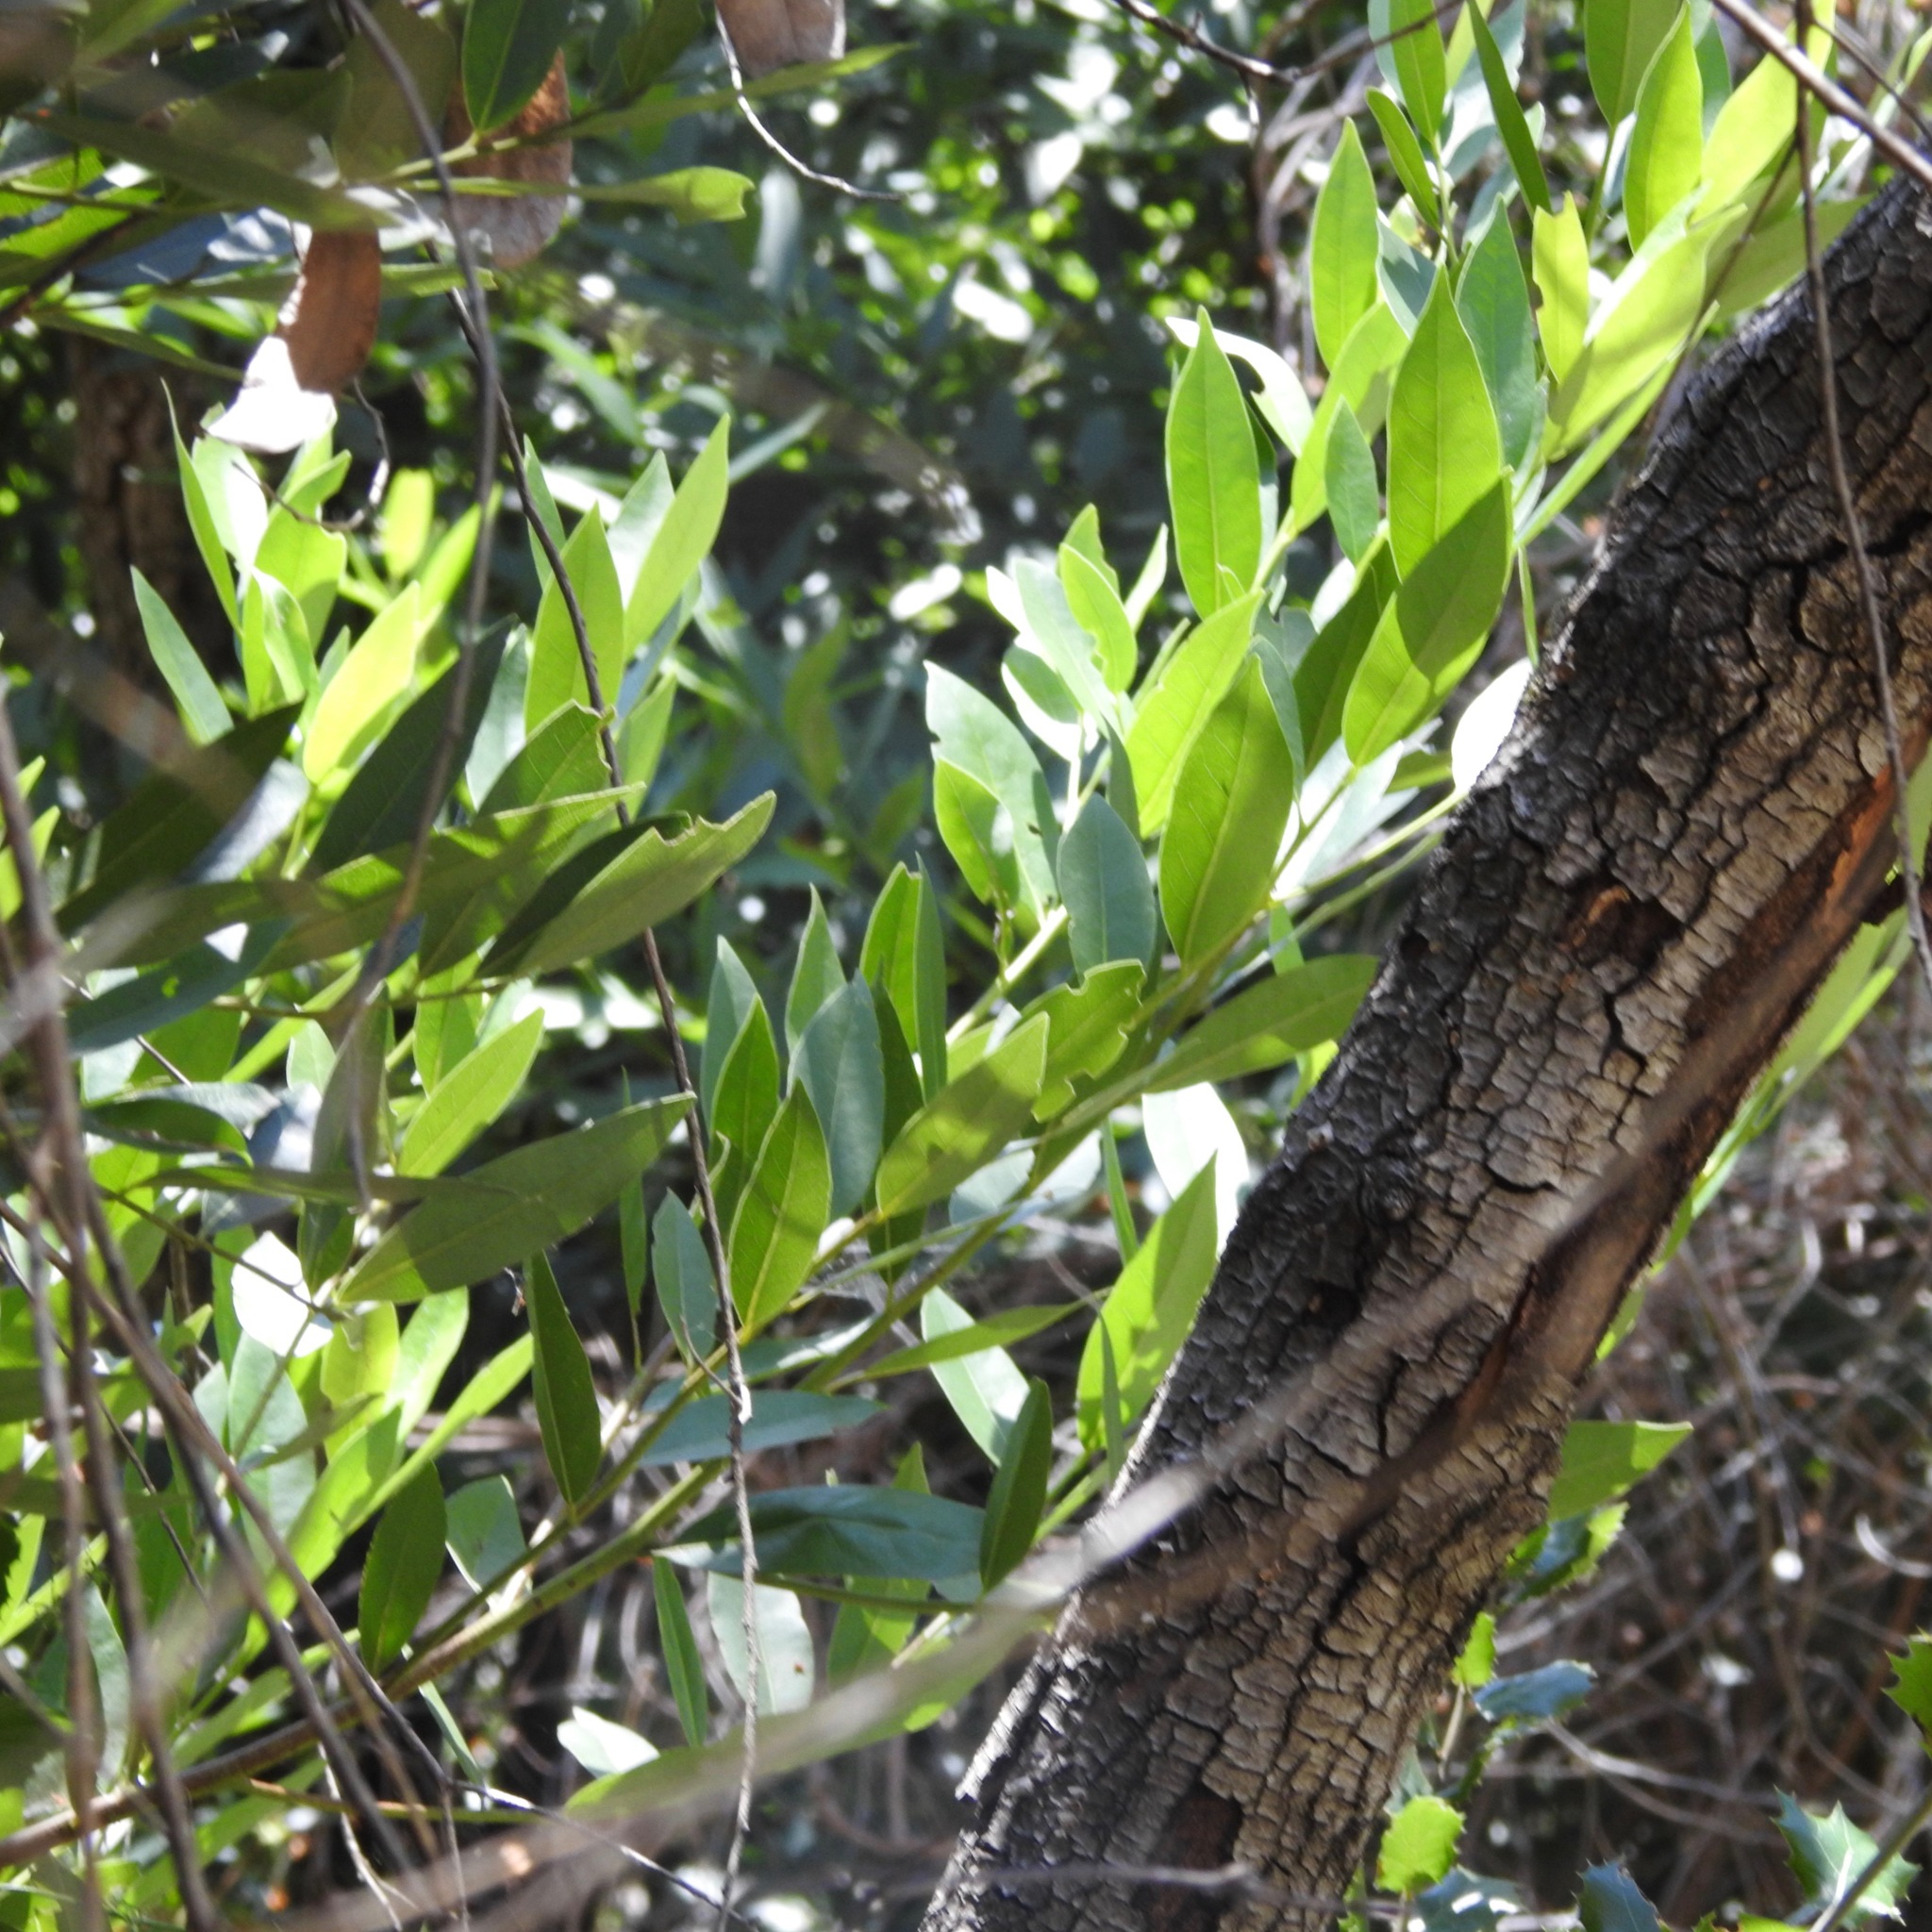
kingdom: Plantae
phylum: Tracheophyta
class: Magnoliopsida
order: Laurales
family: Lauraceae
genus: Umbellularia
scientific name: Umbellularia californica
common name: California bay
